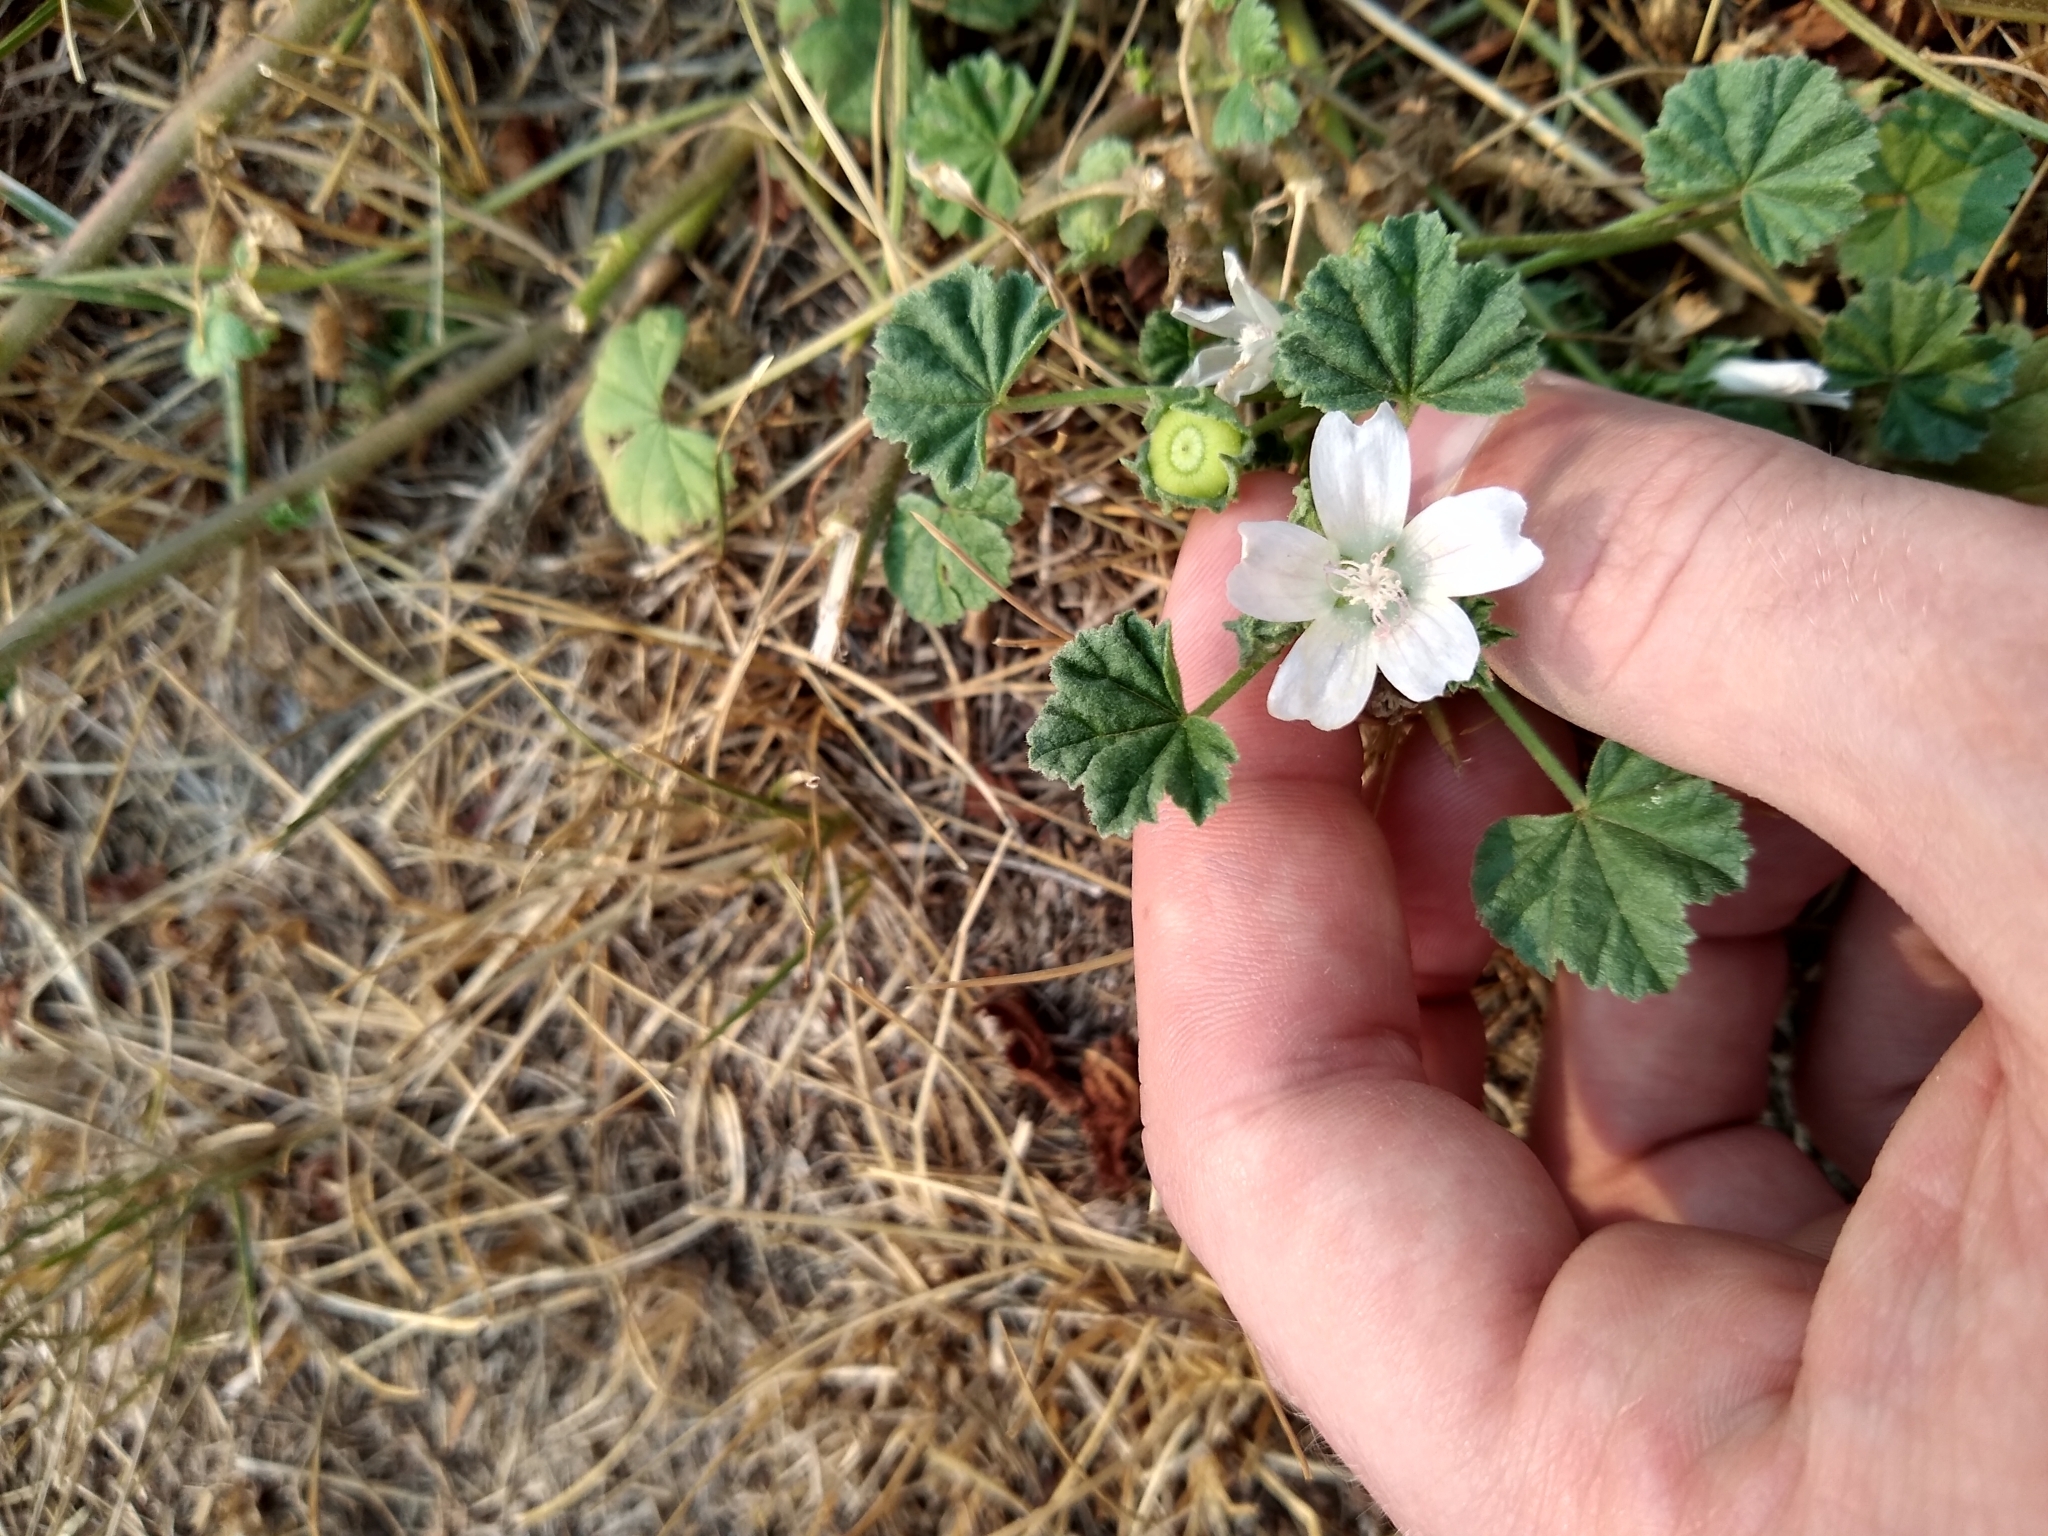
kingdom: Plantae
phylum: Tracheophyta
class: Magnoliopsida
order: Malvales
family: Malvaceae
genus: Malva
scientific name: Malva neglecta
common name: Common mallow
